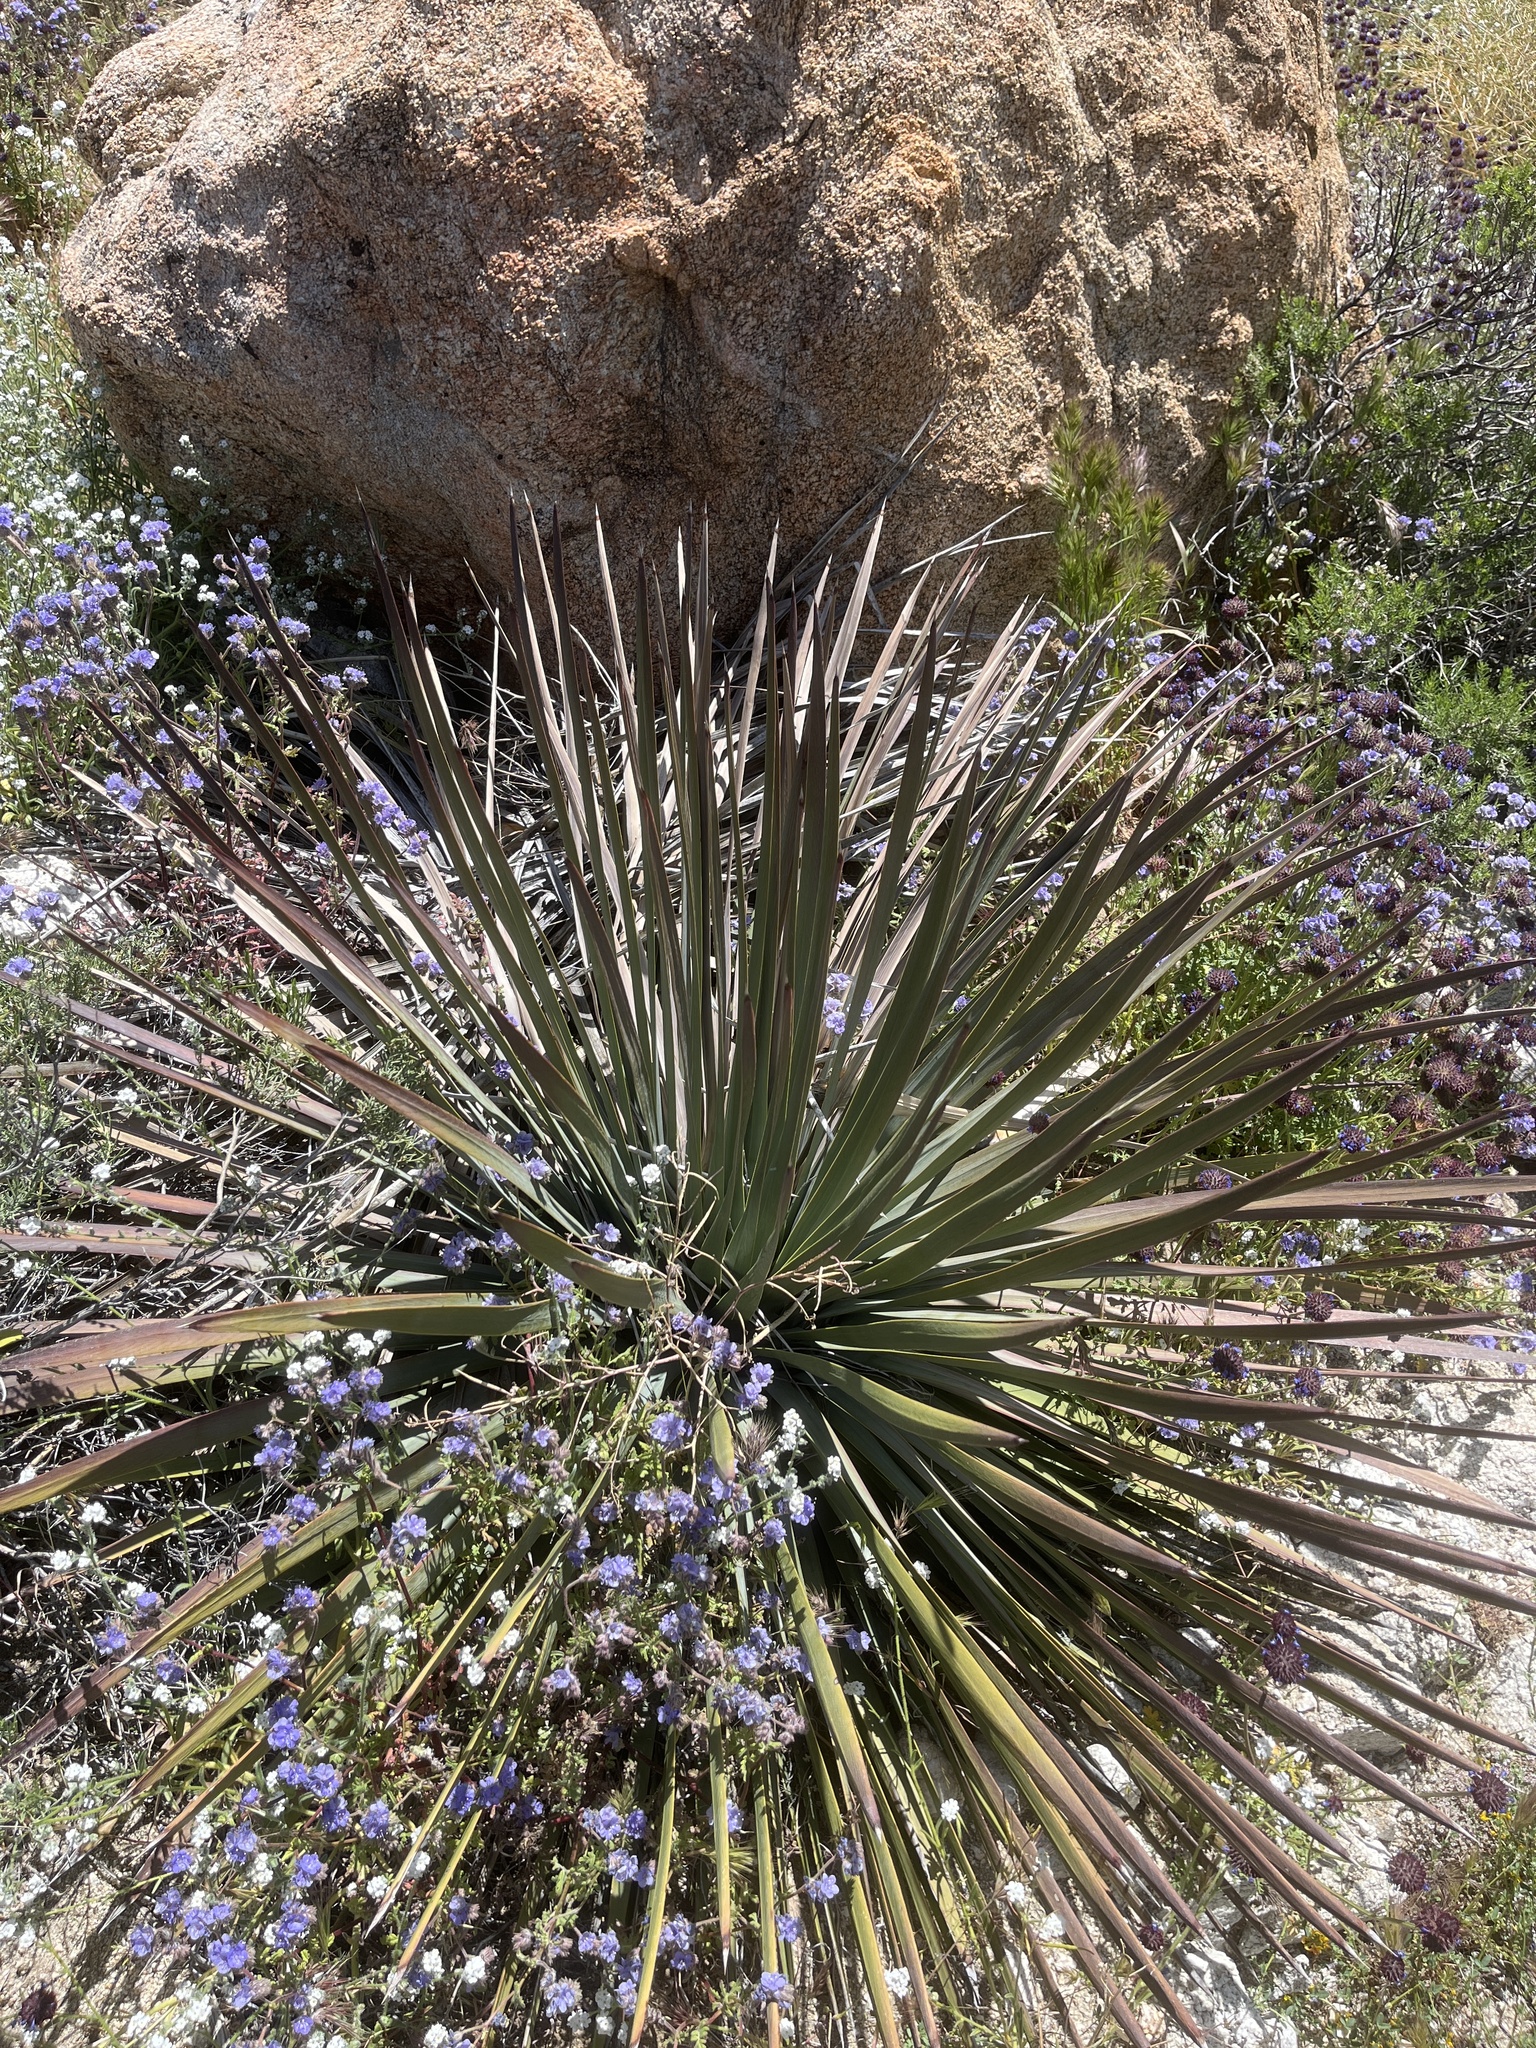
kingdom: Plantae
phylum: Tracheophyta
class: Liliopsida
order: Asparagales
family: Asparagaceae
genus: Hesperoyucca
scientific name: Hesperoyucca whipplei
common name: Our lord's-candle
